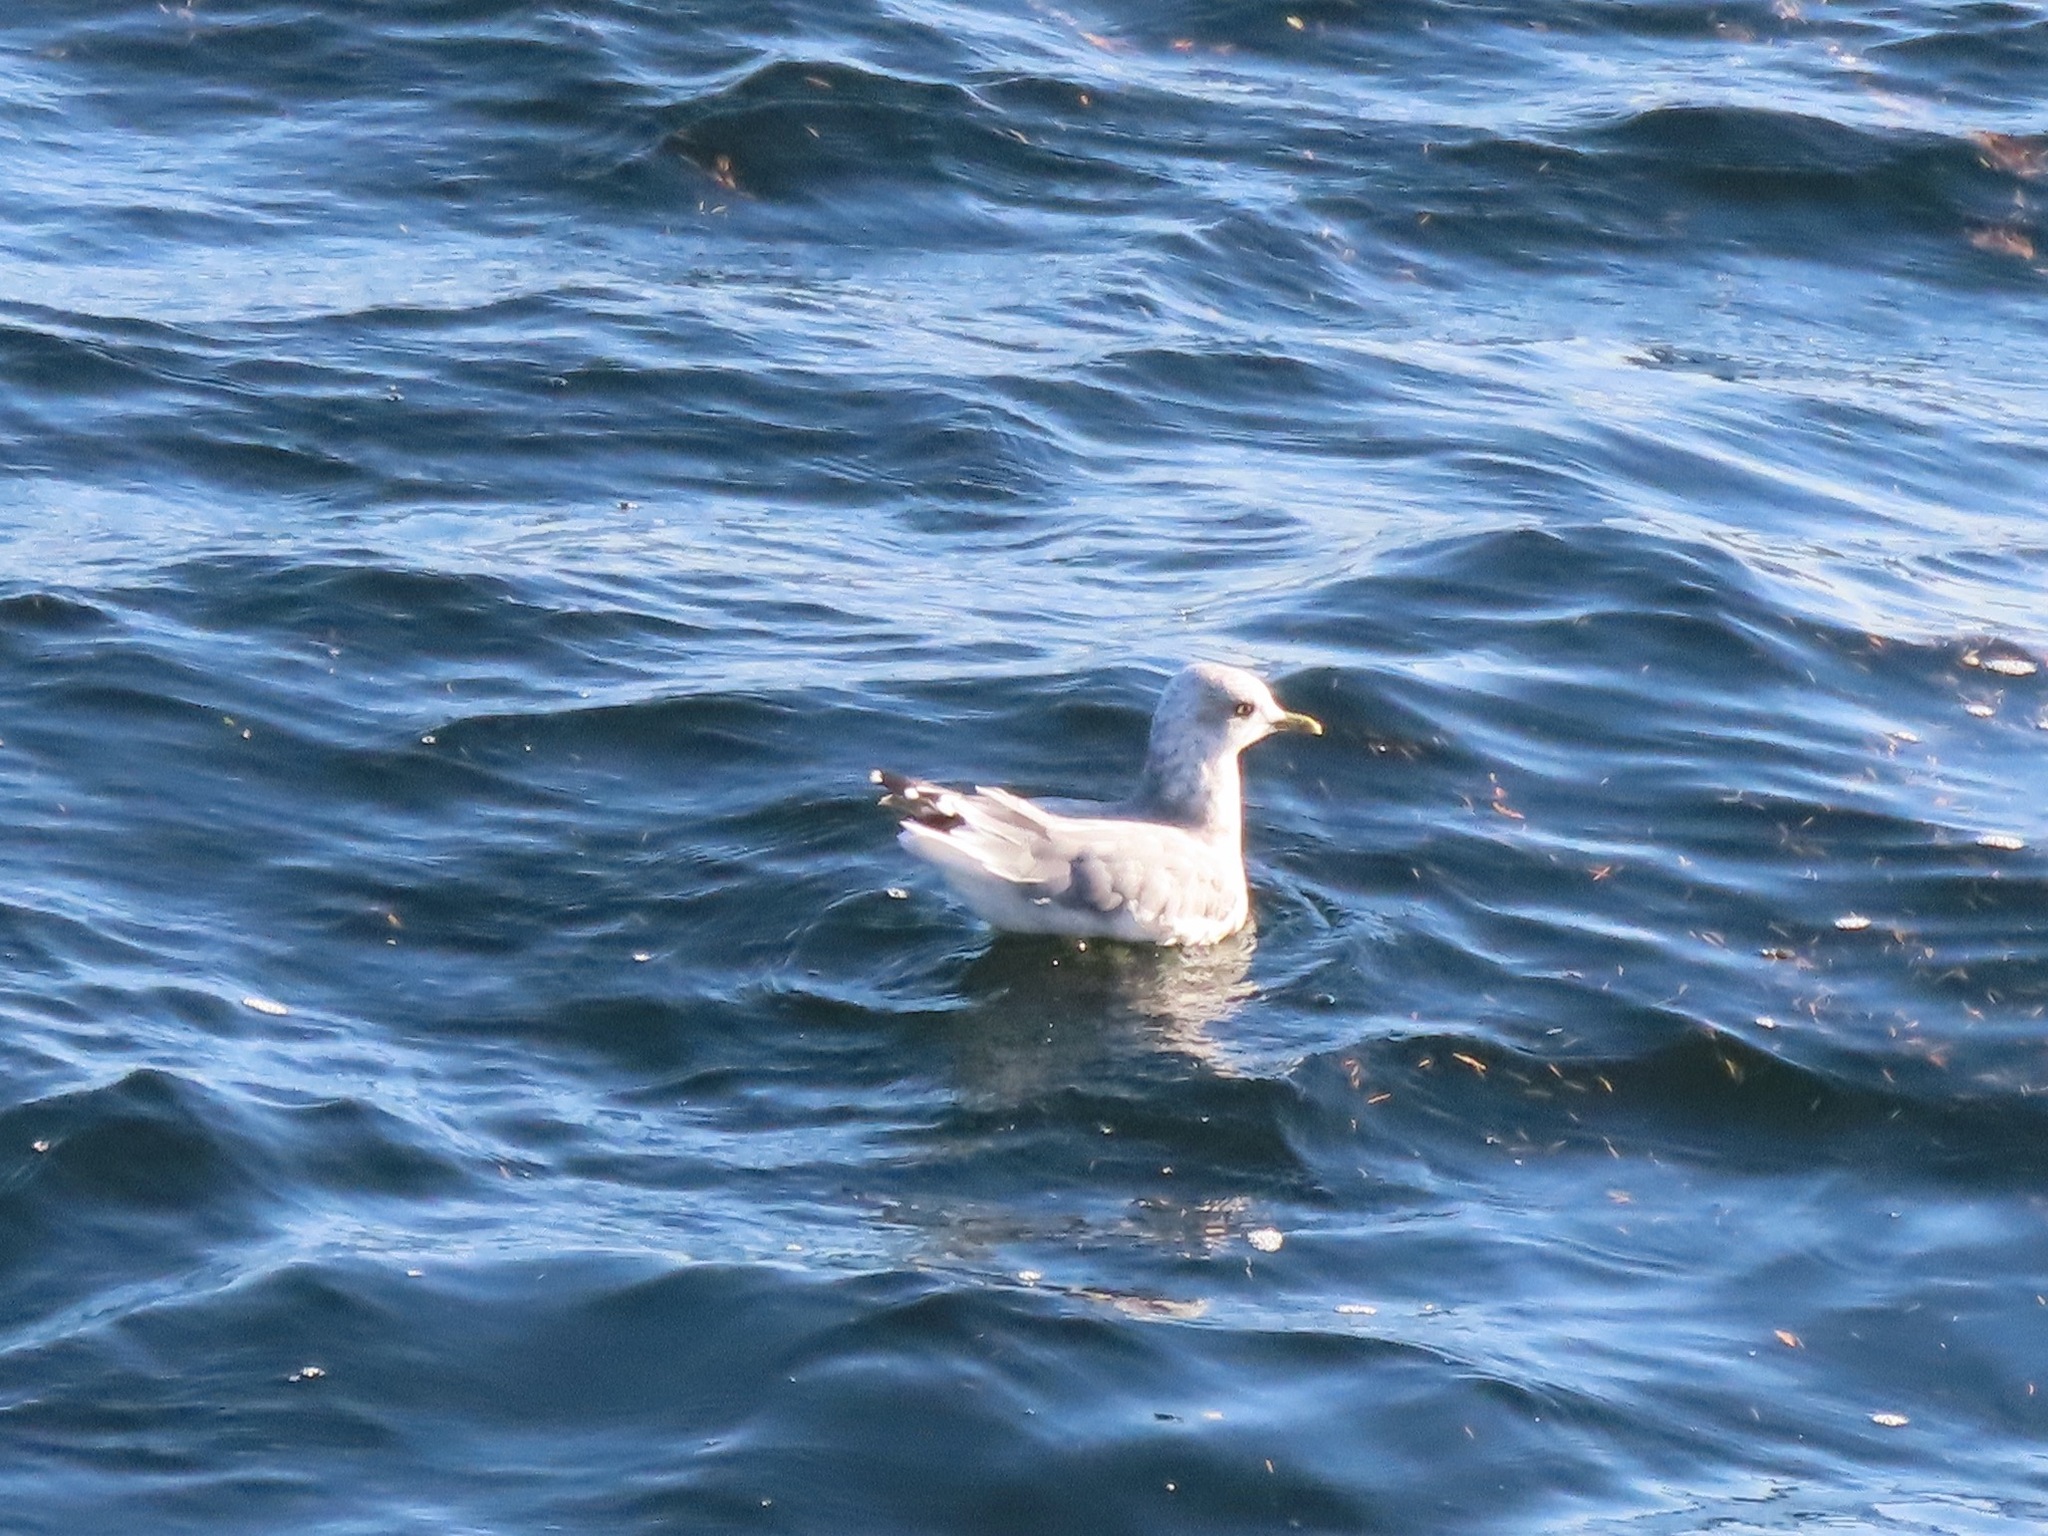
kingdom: Animalia
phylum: Chordata
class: Aves
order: Charadriiformes
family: Laridae
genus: Larus
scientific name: Larus brachyrhynchus
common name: Short-billed gull
